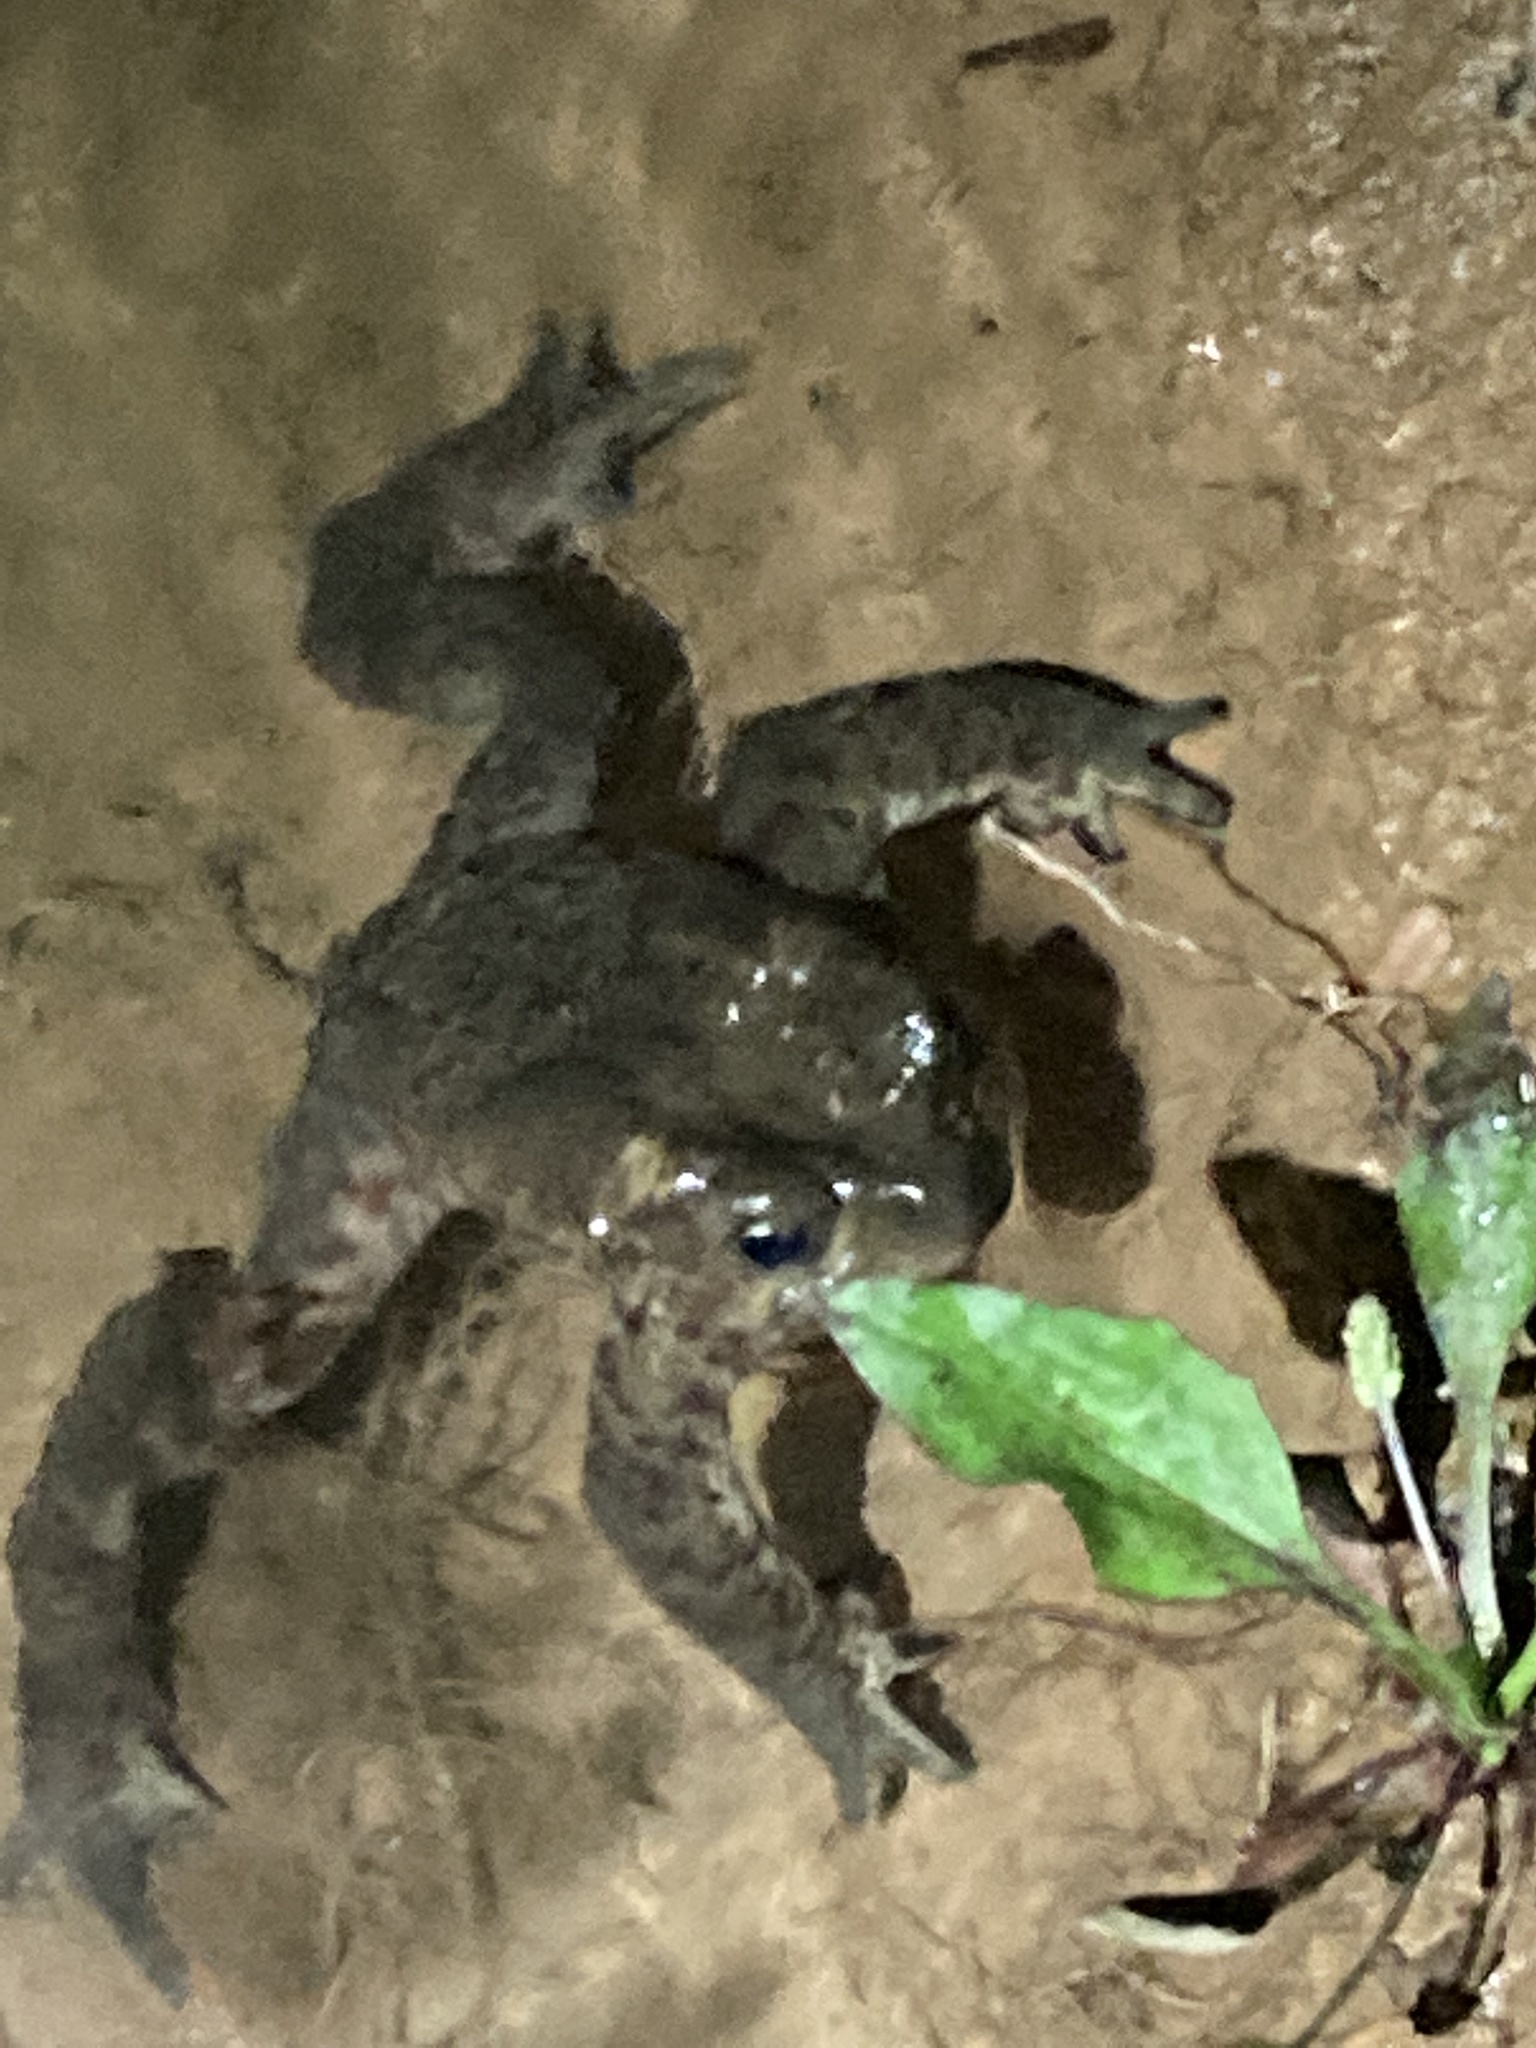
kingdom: Animalia
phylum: Chordata
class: Amphibia
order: Anura
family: Bufonidae
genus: Duttaphrynus
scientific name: Duttaphrynus himalayanus
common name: Günther's high altitude toad
